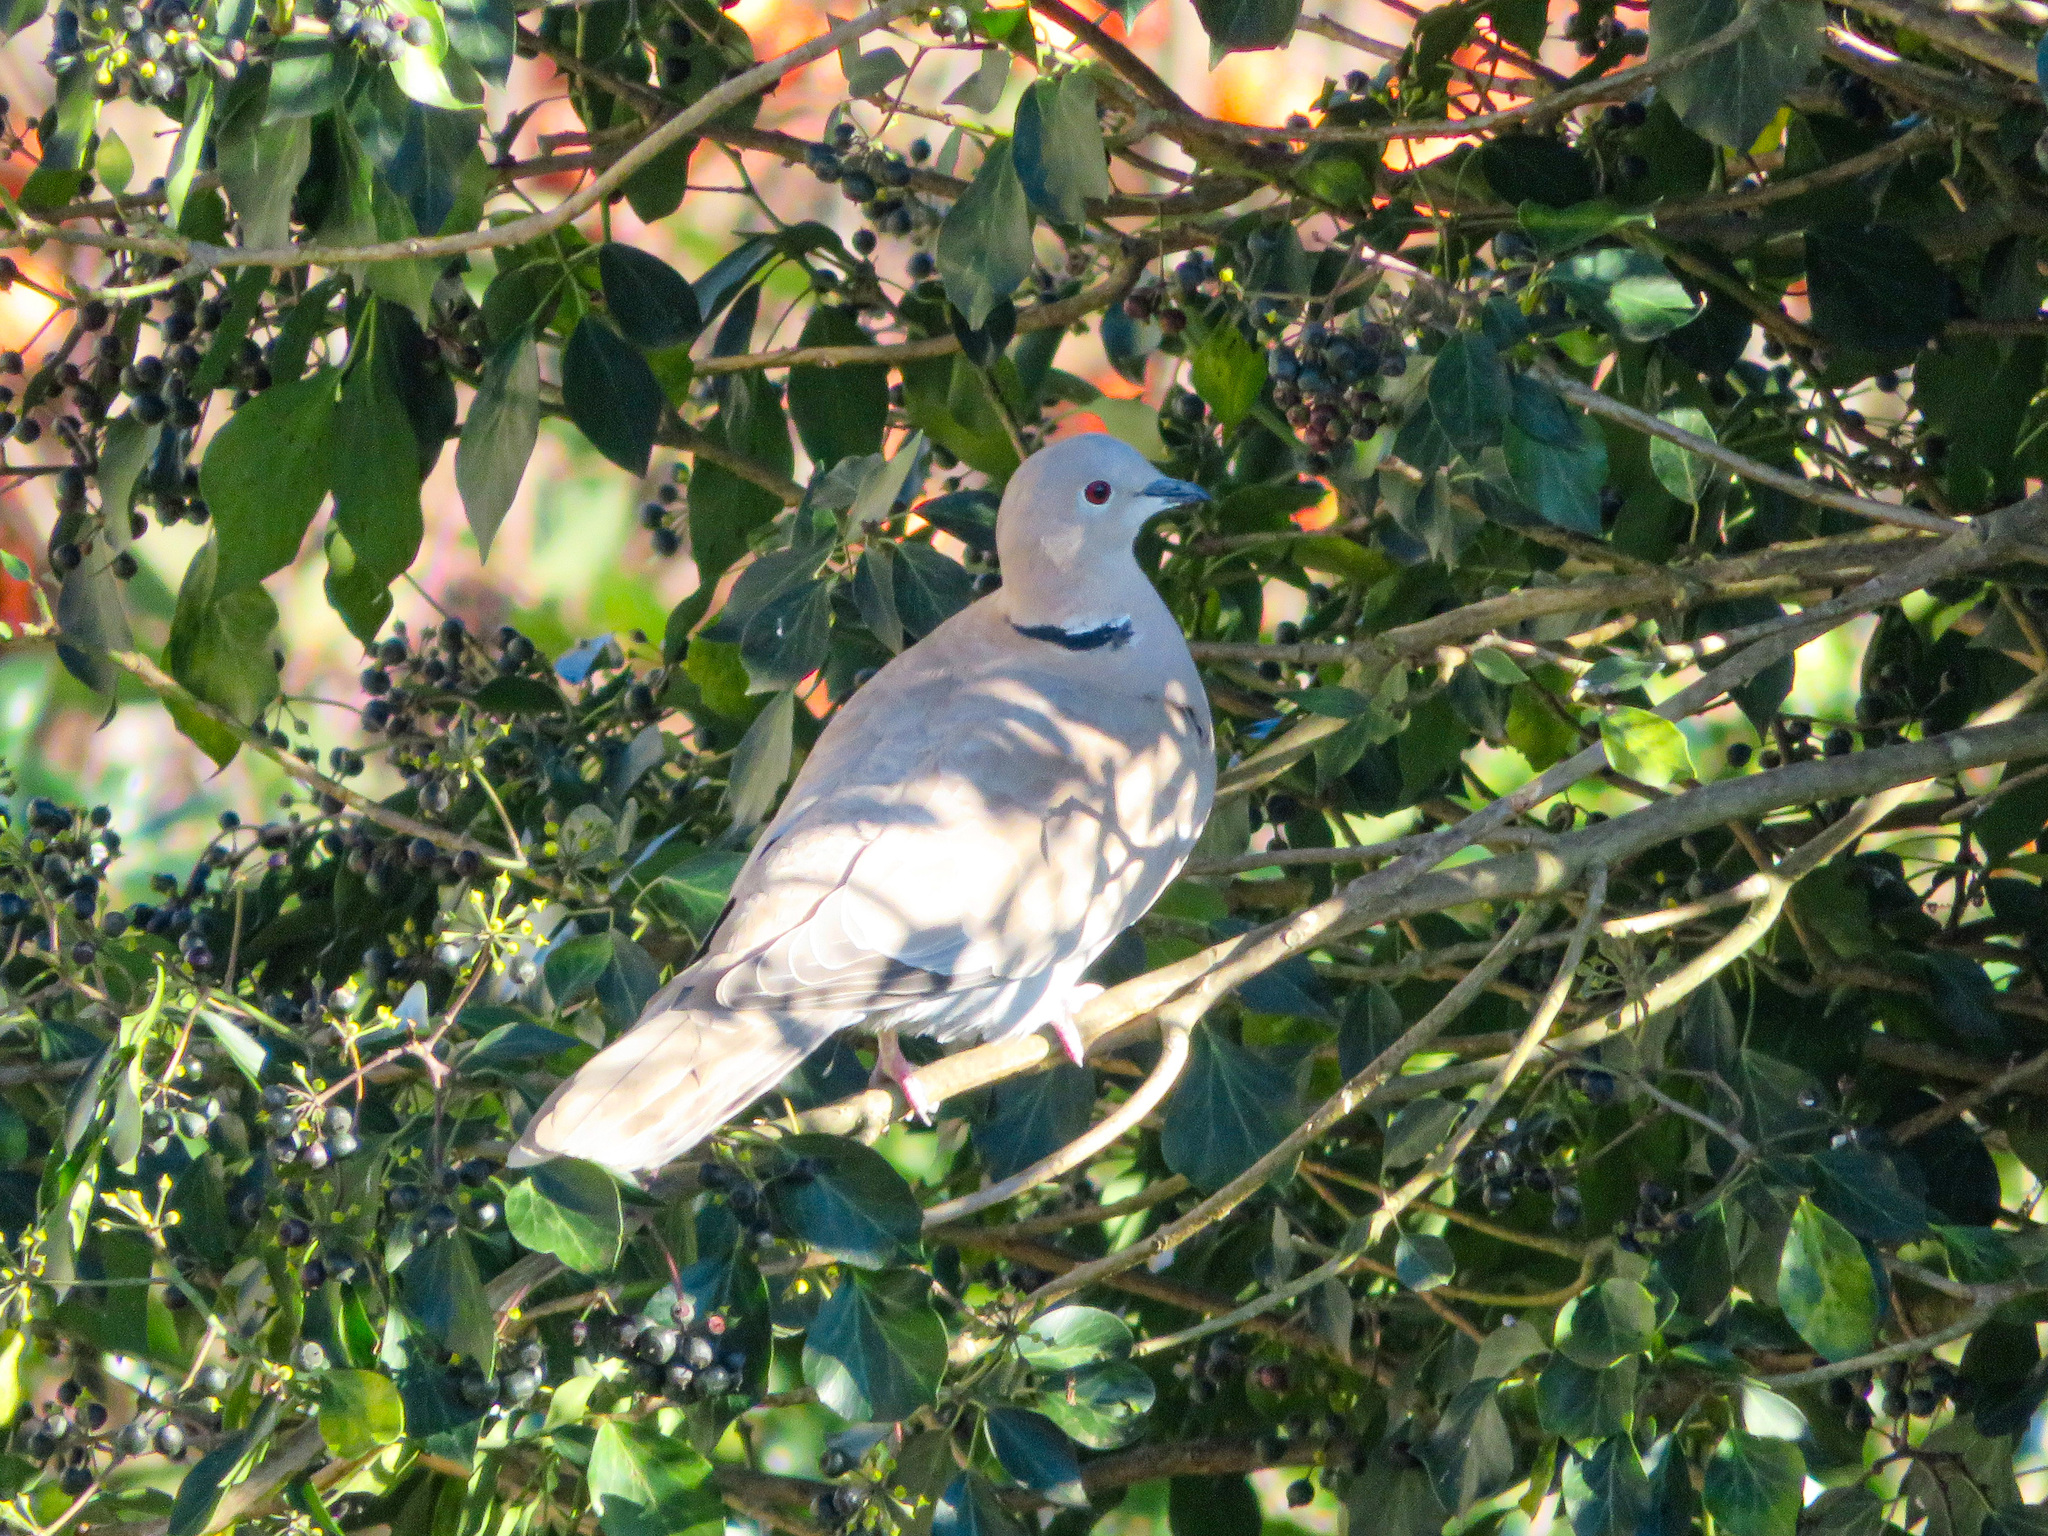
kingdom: Animalia
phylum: Chordata
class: Aves
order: Columbiformes
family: Columbidae
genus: Streptopelia
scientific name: Streptopelia decaocto
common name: Eurasian collared dove
